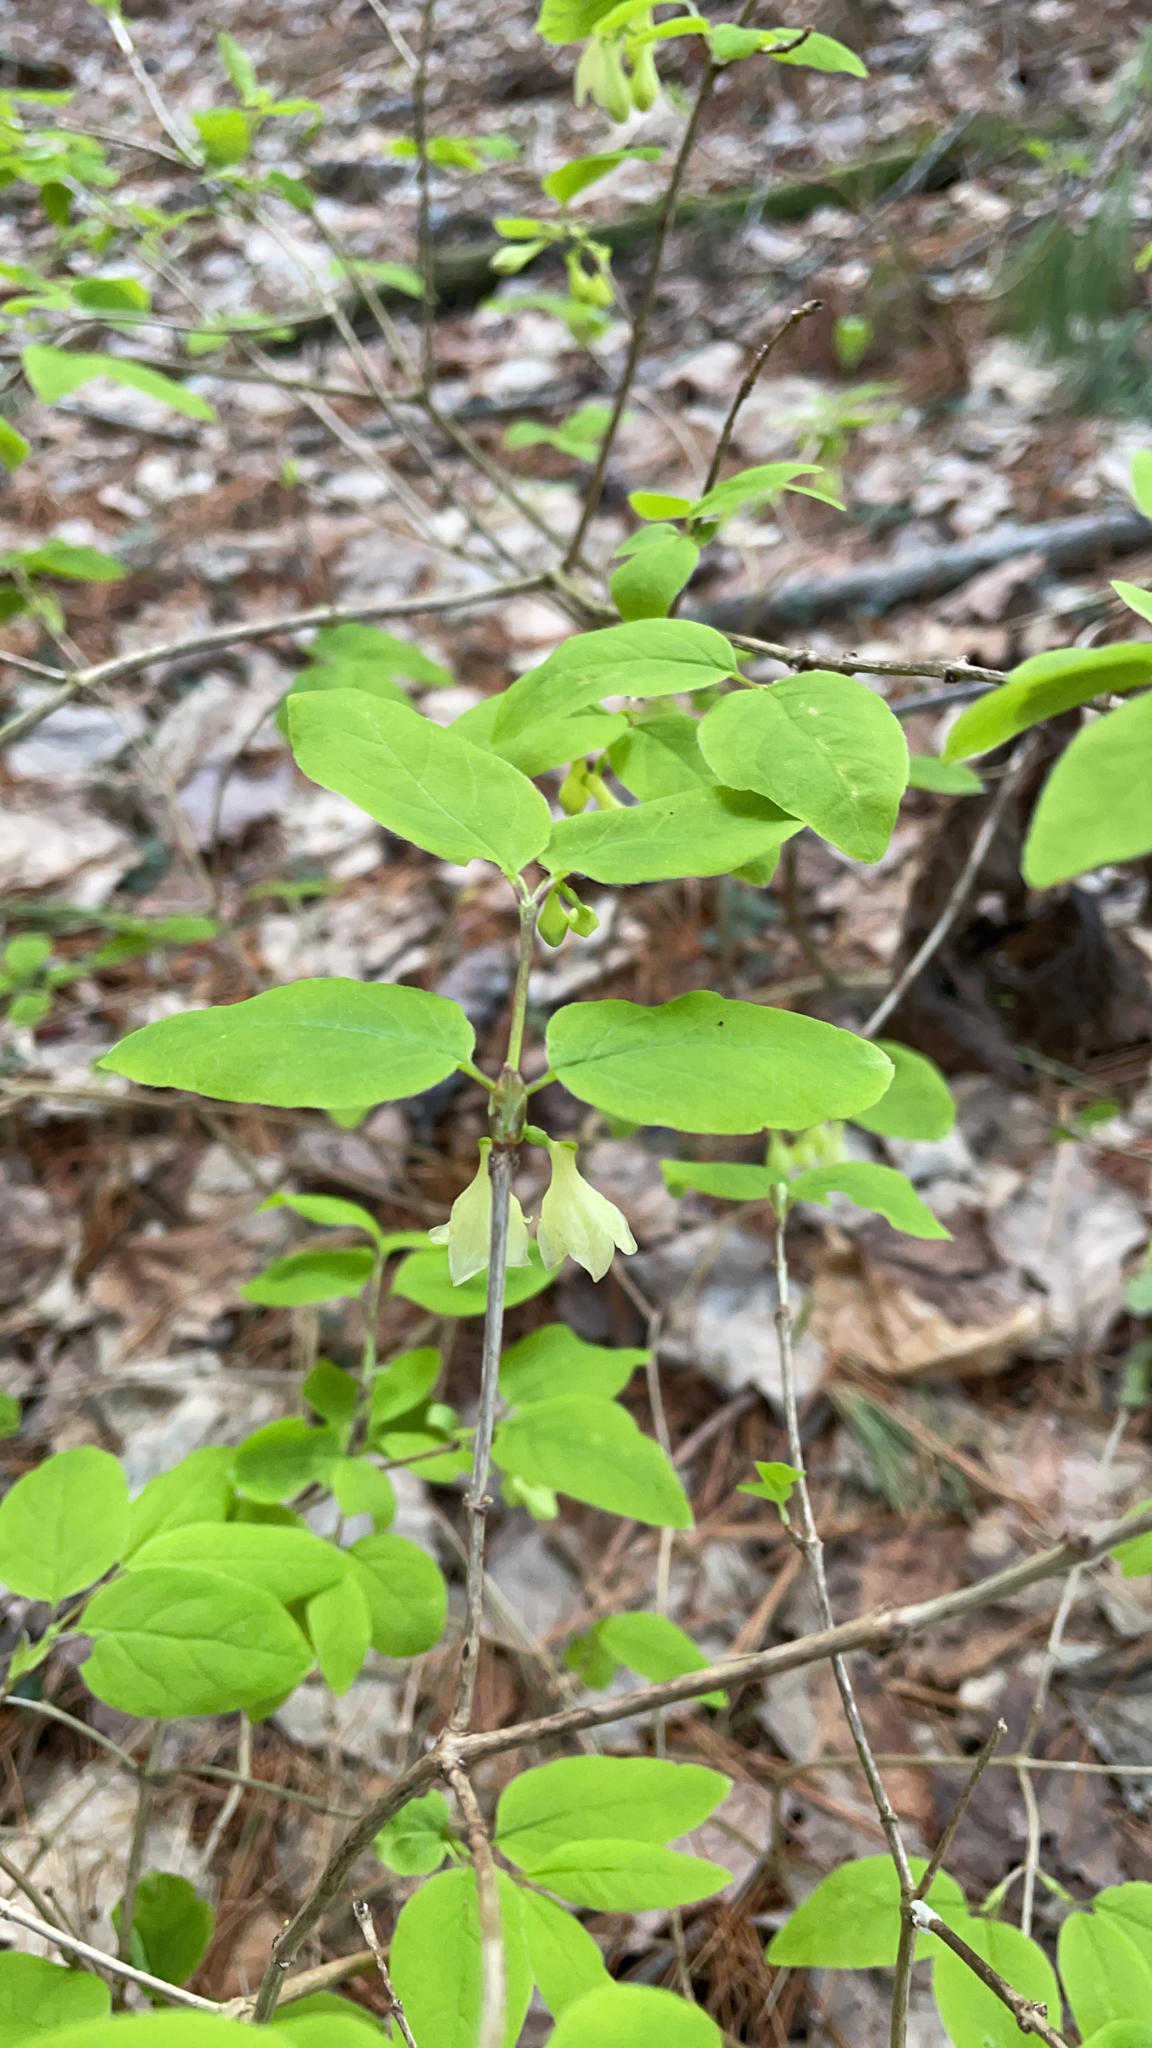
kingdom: Plantae
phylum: Tracheophyta
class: Magnoliopsida
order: Dipsacales
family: Caprifoliaceae
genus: Lonicera
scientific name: Lonicera canadensis
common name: American fly-honeysuckle
